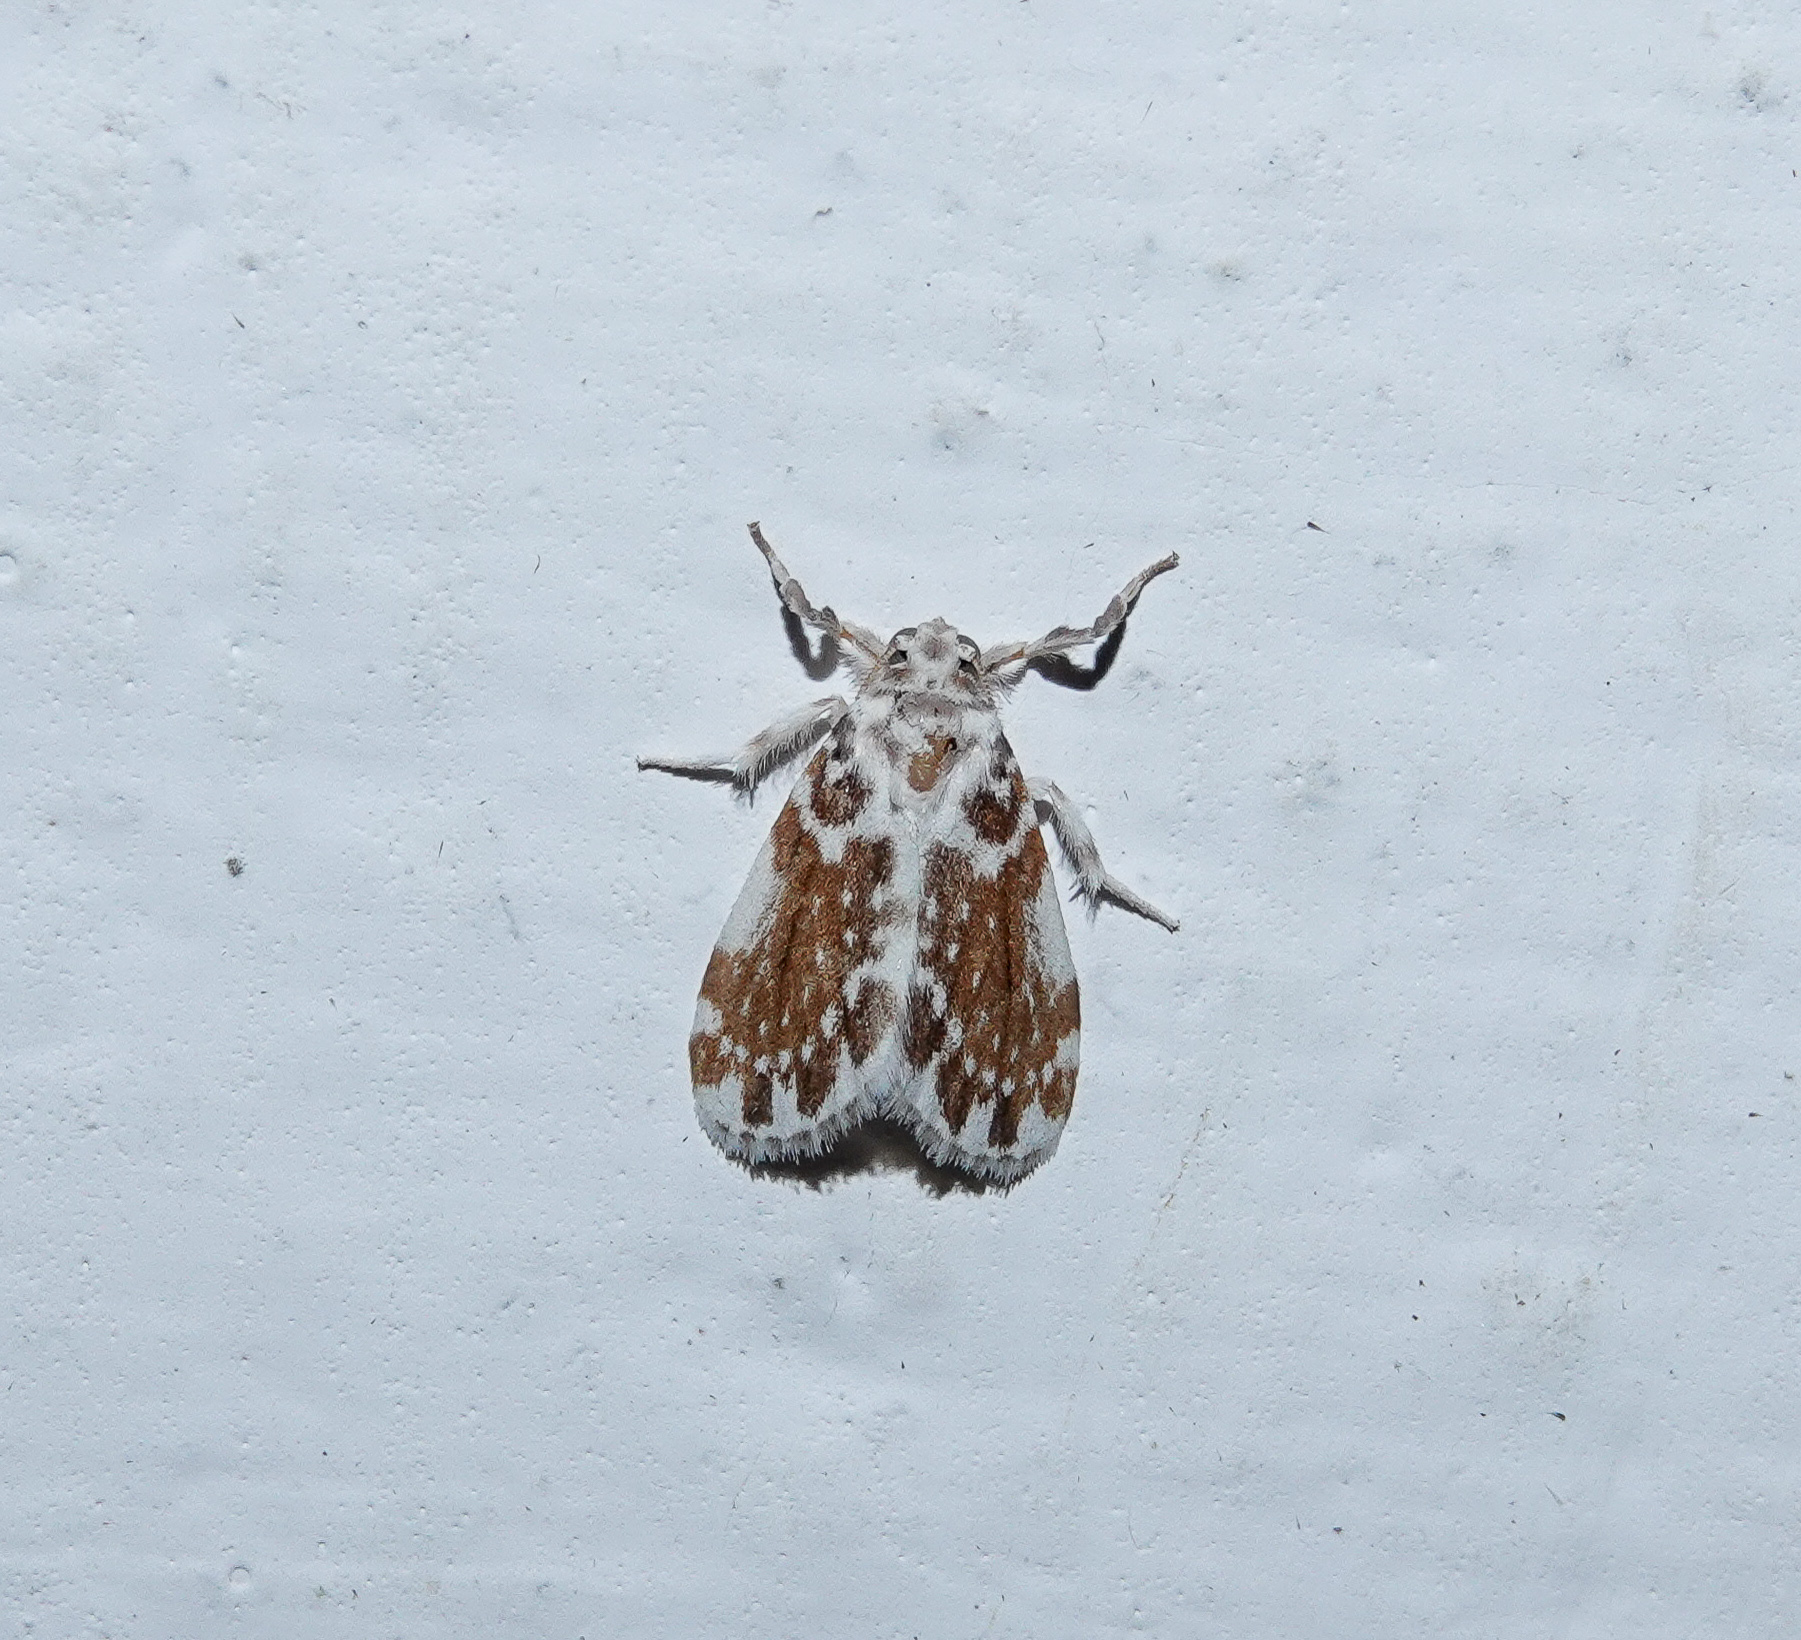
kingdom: Animalia
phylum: Arthropoda
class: Insecta
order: Lepidoptera
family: Erebidae
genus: Pseudoadites
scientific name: Pseudoadites frigida
